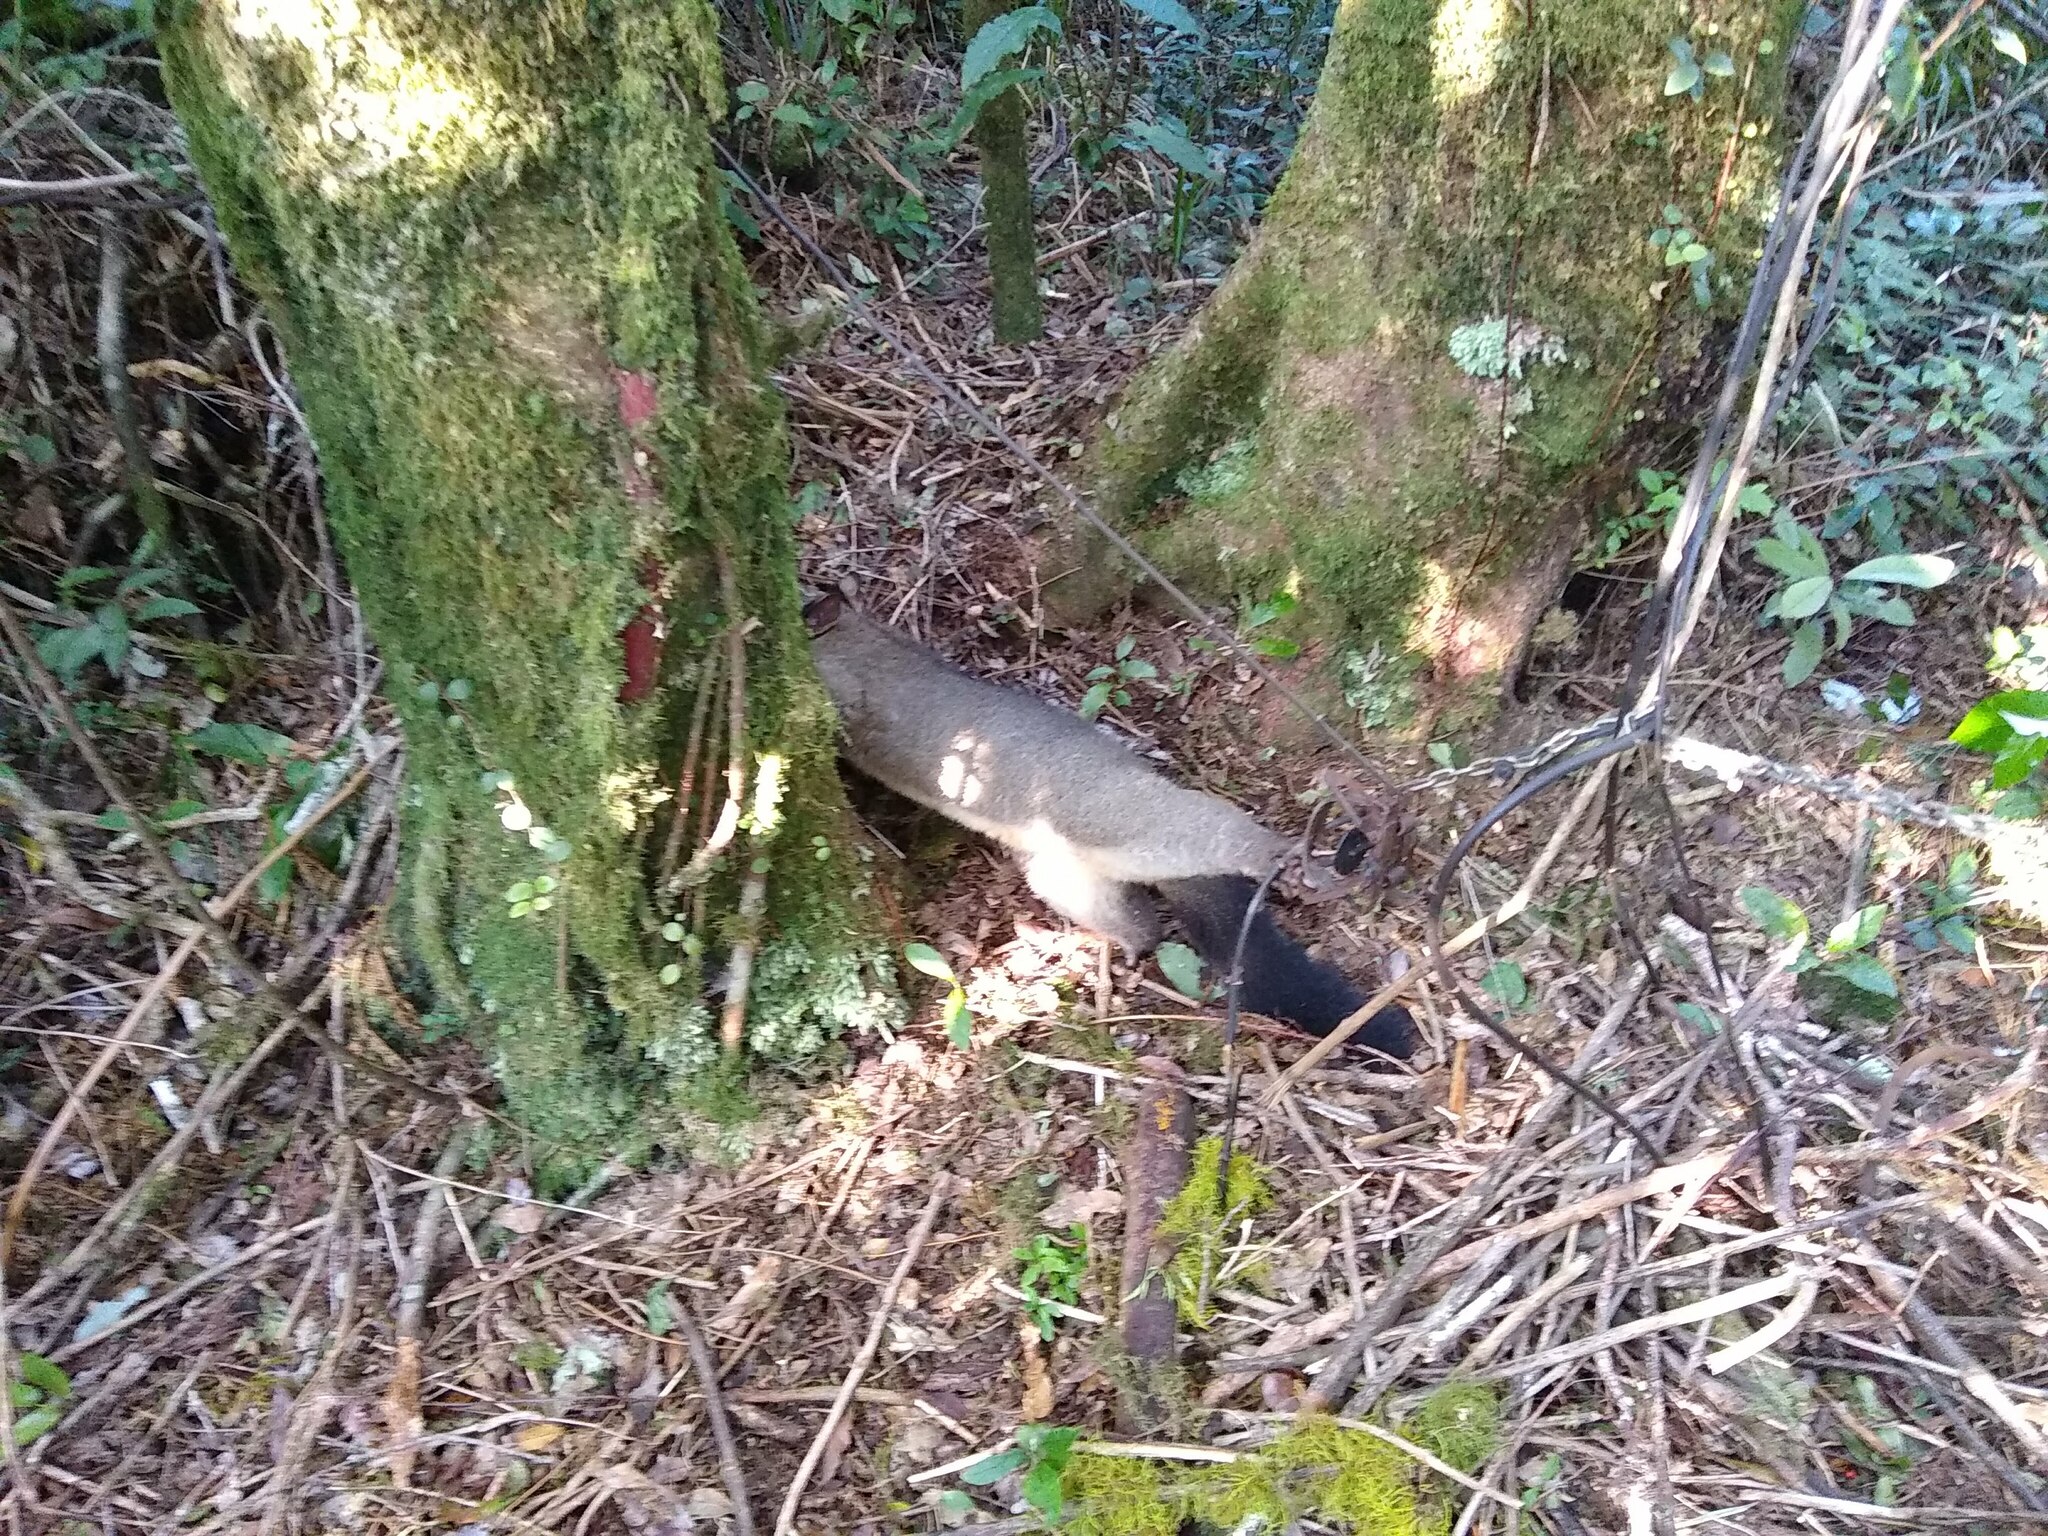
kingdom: Animalia
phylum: Chordata
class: Mammalia
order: Diprotodontia
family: Phalangeridae
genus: Trichosurus
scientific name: Trichosurus vulpecula
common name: Common brushtail
